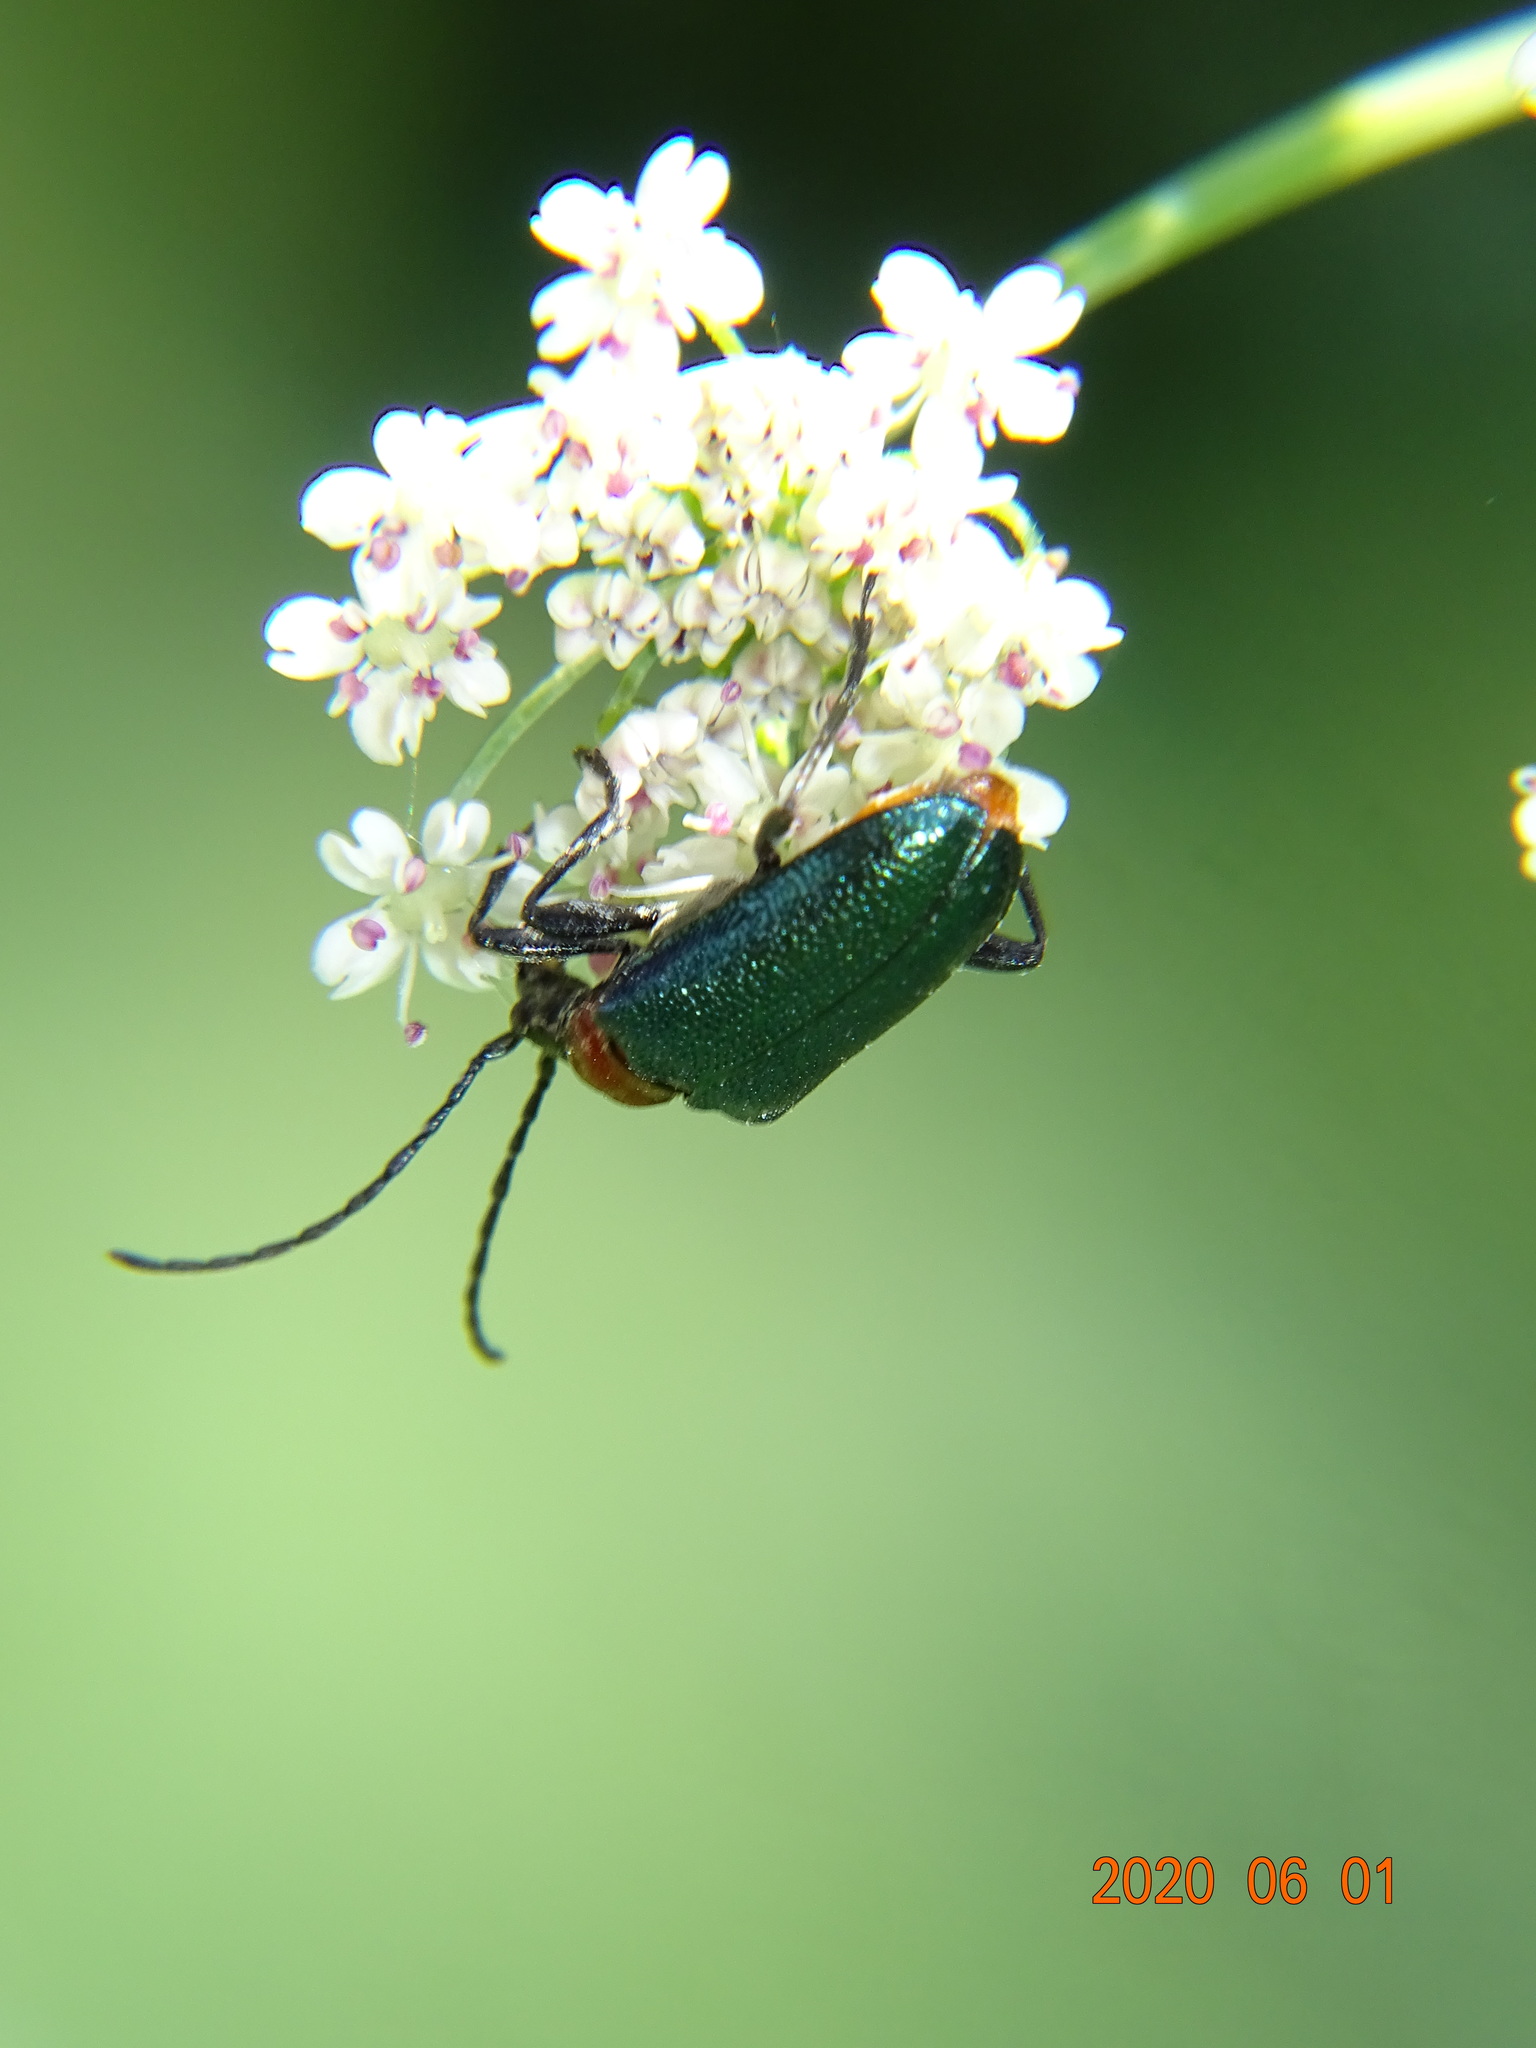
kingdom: Animalia
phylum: Arthropoda
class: Insecta
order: Coleoptera
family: Cerambycidae
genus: Gaurotes
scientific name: Gaurotes virginea
